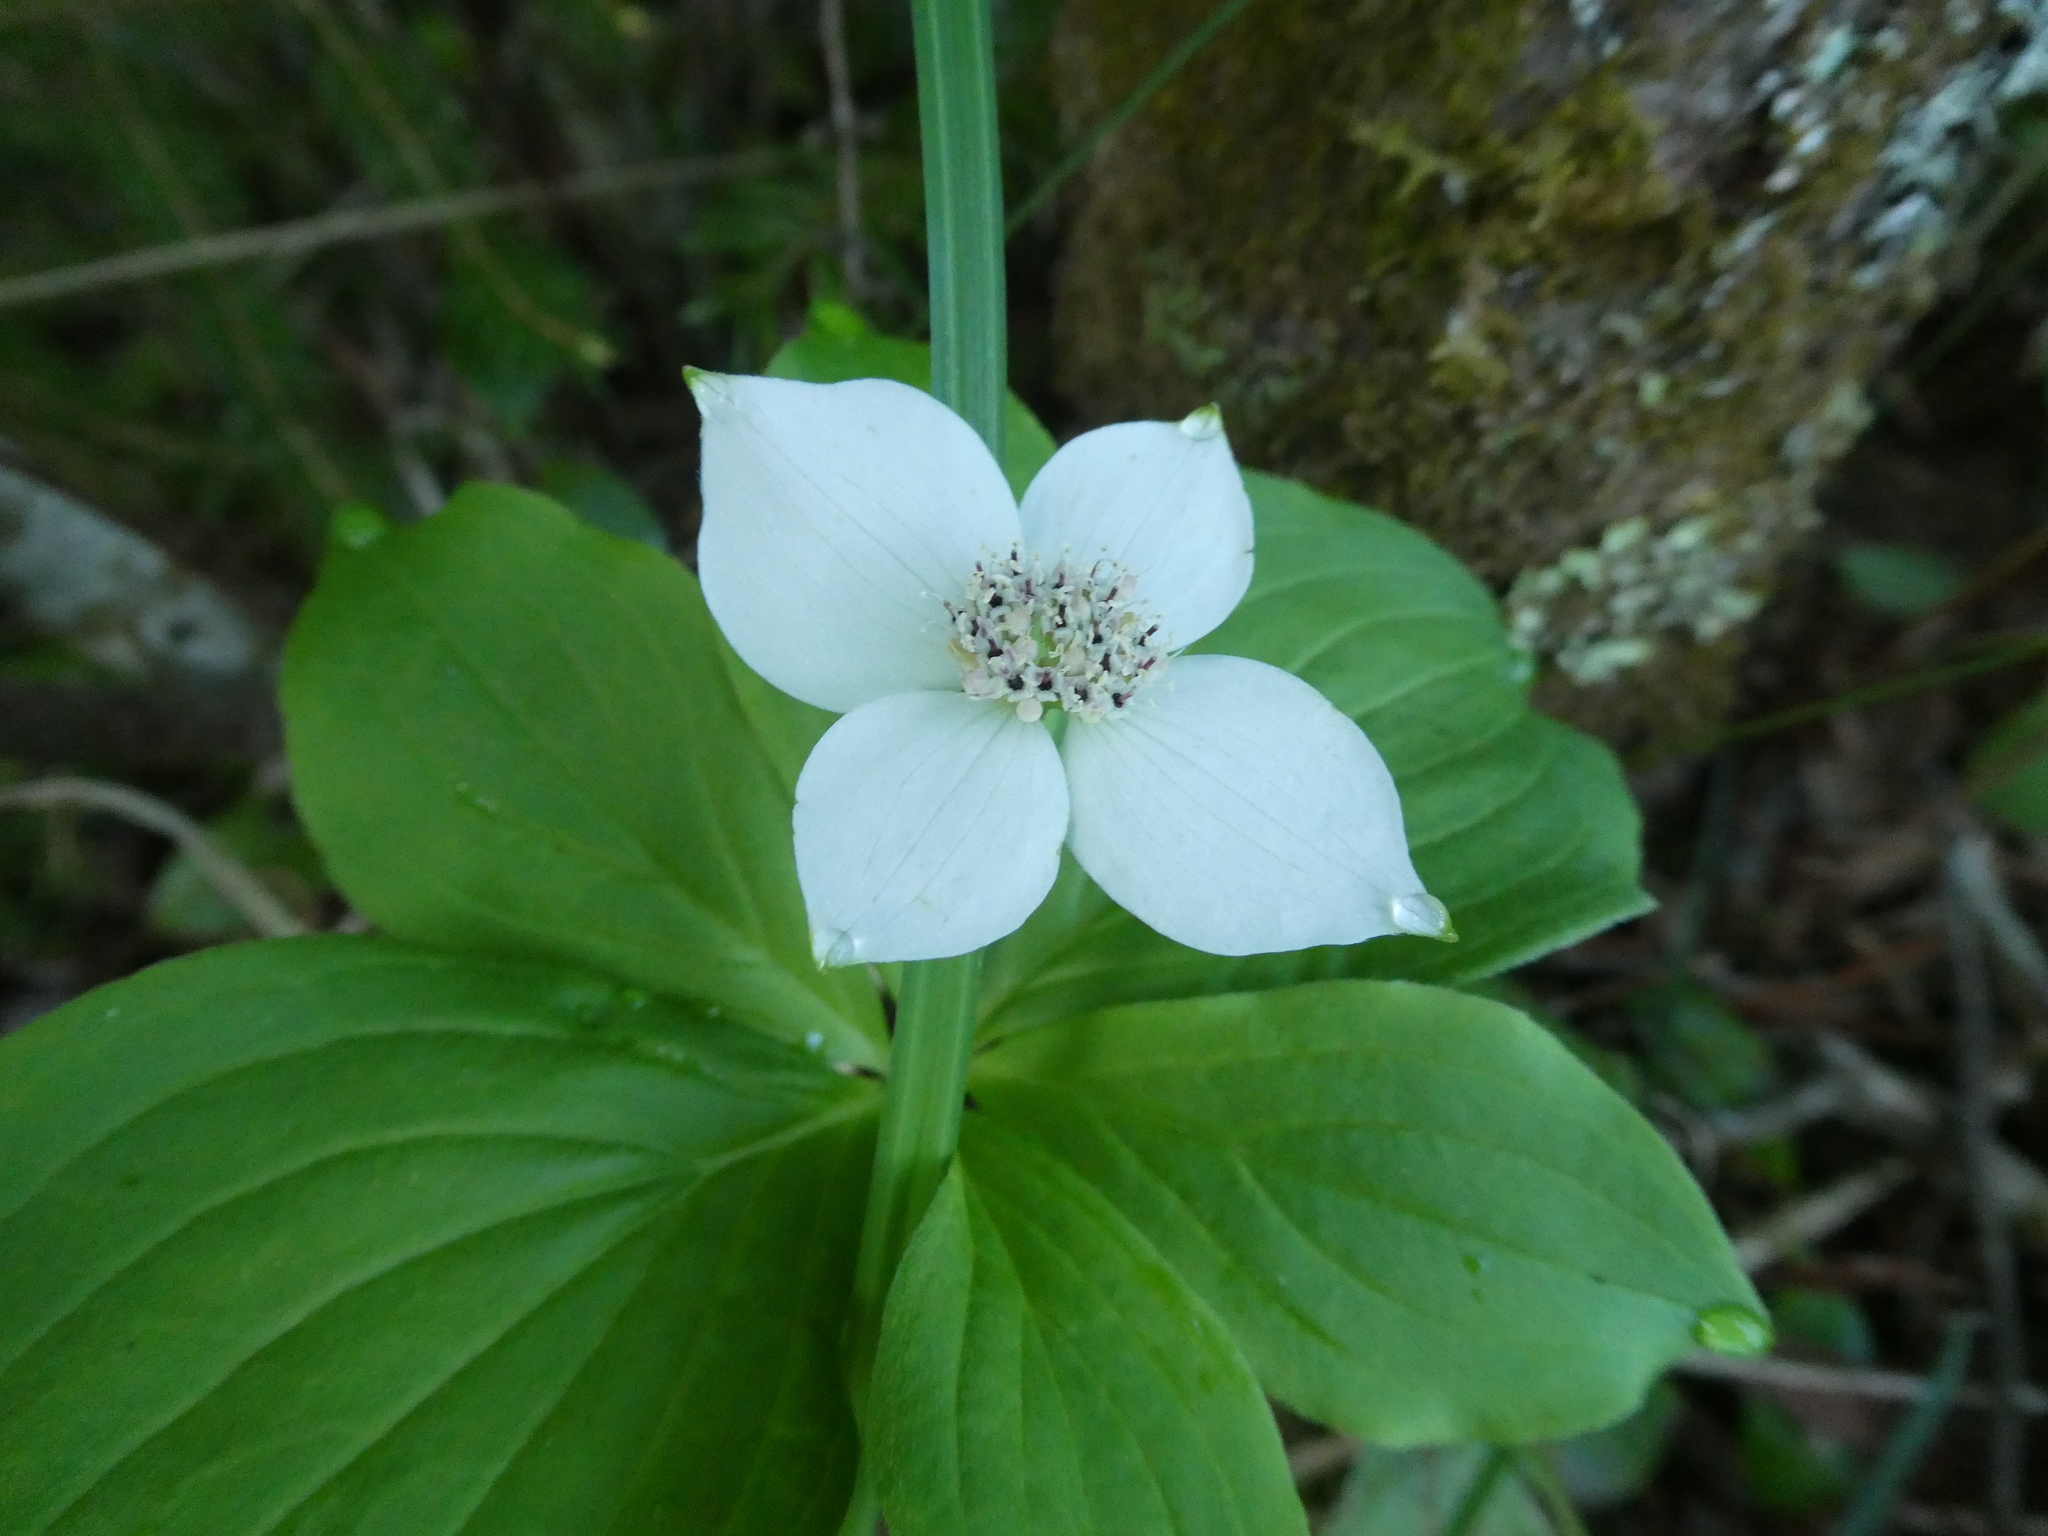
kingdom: Plantae
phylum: Tracheophyta
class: Magnoliopsida
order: Cornales
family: Cornaceae
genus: Cornus
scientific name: Cornus canadensis
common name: Creeping dogwood
